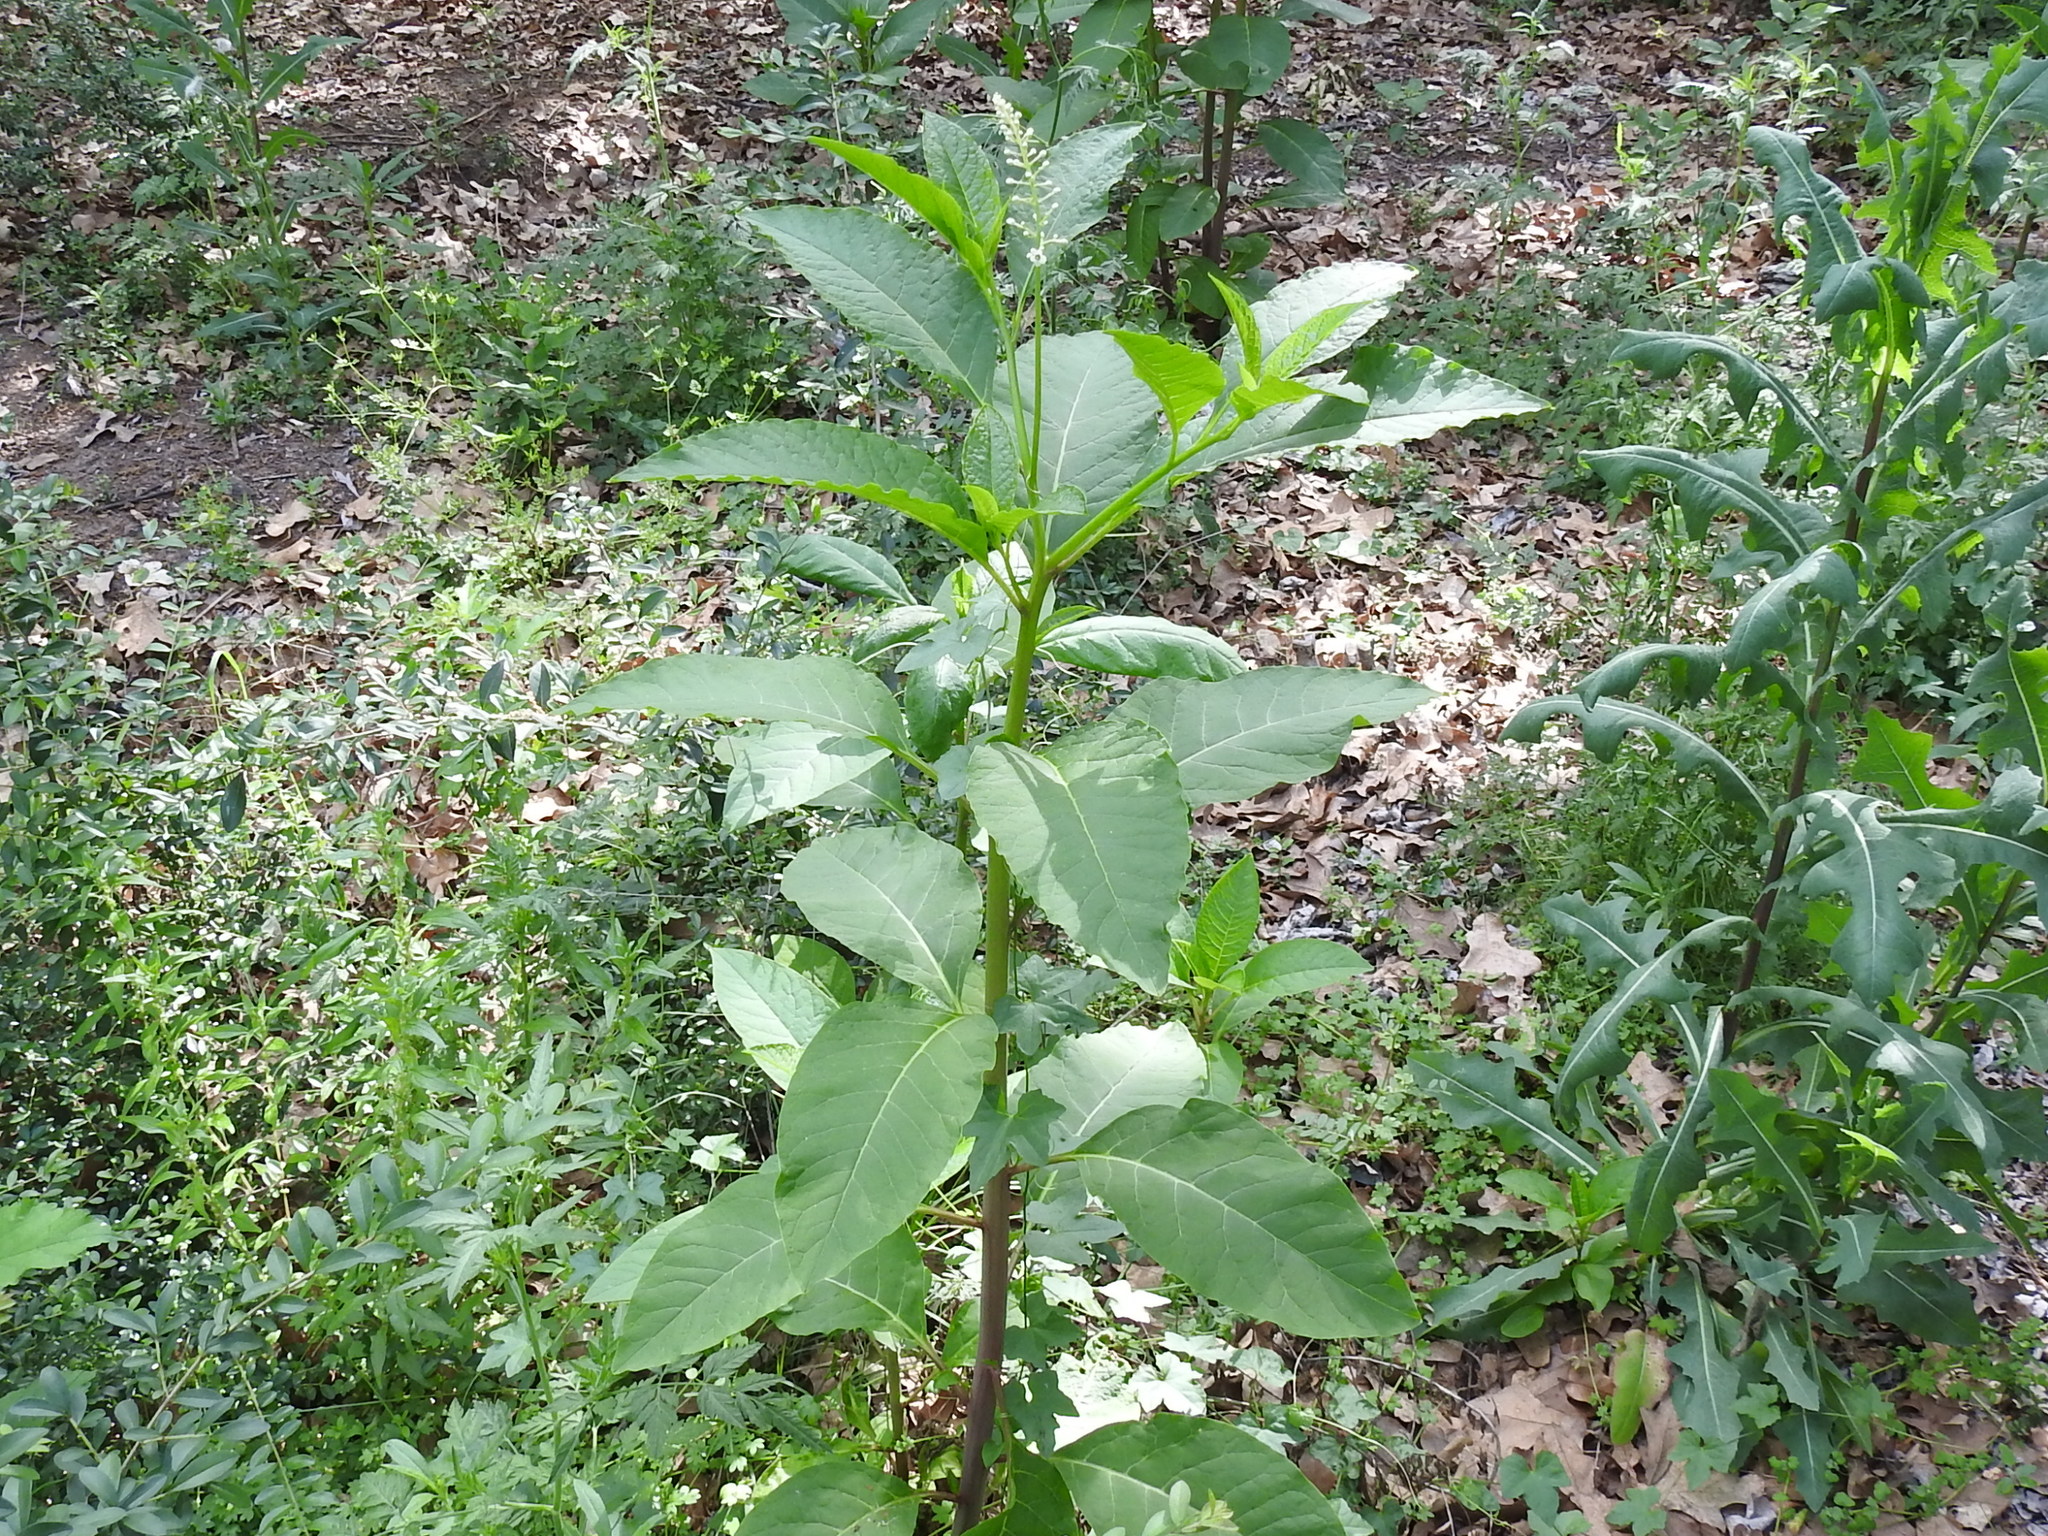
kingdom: Plantae
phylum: Tracheophyta
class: Magnoliopsida
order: Caryophyllales
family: Phytolaccaceae
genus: Phytolacca
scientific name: Phytolacca americana
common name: American pokeweed
